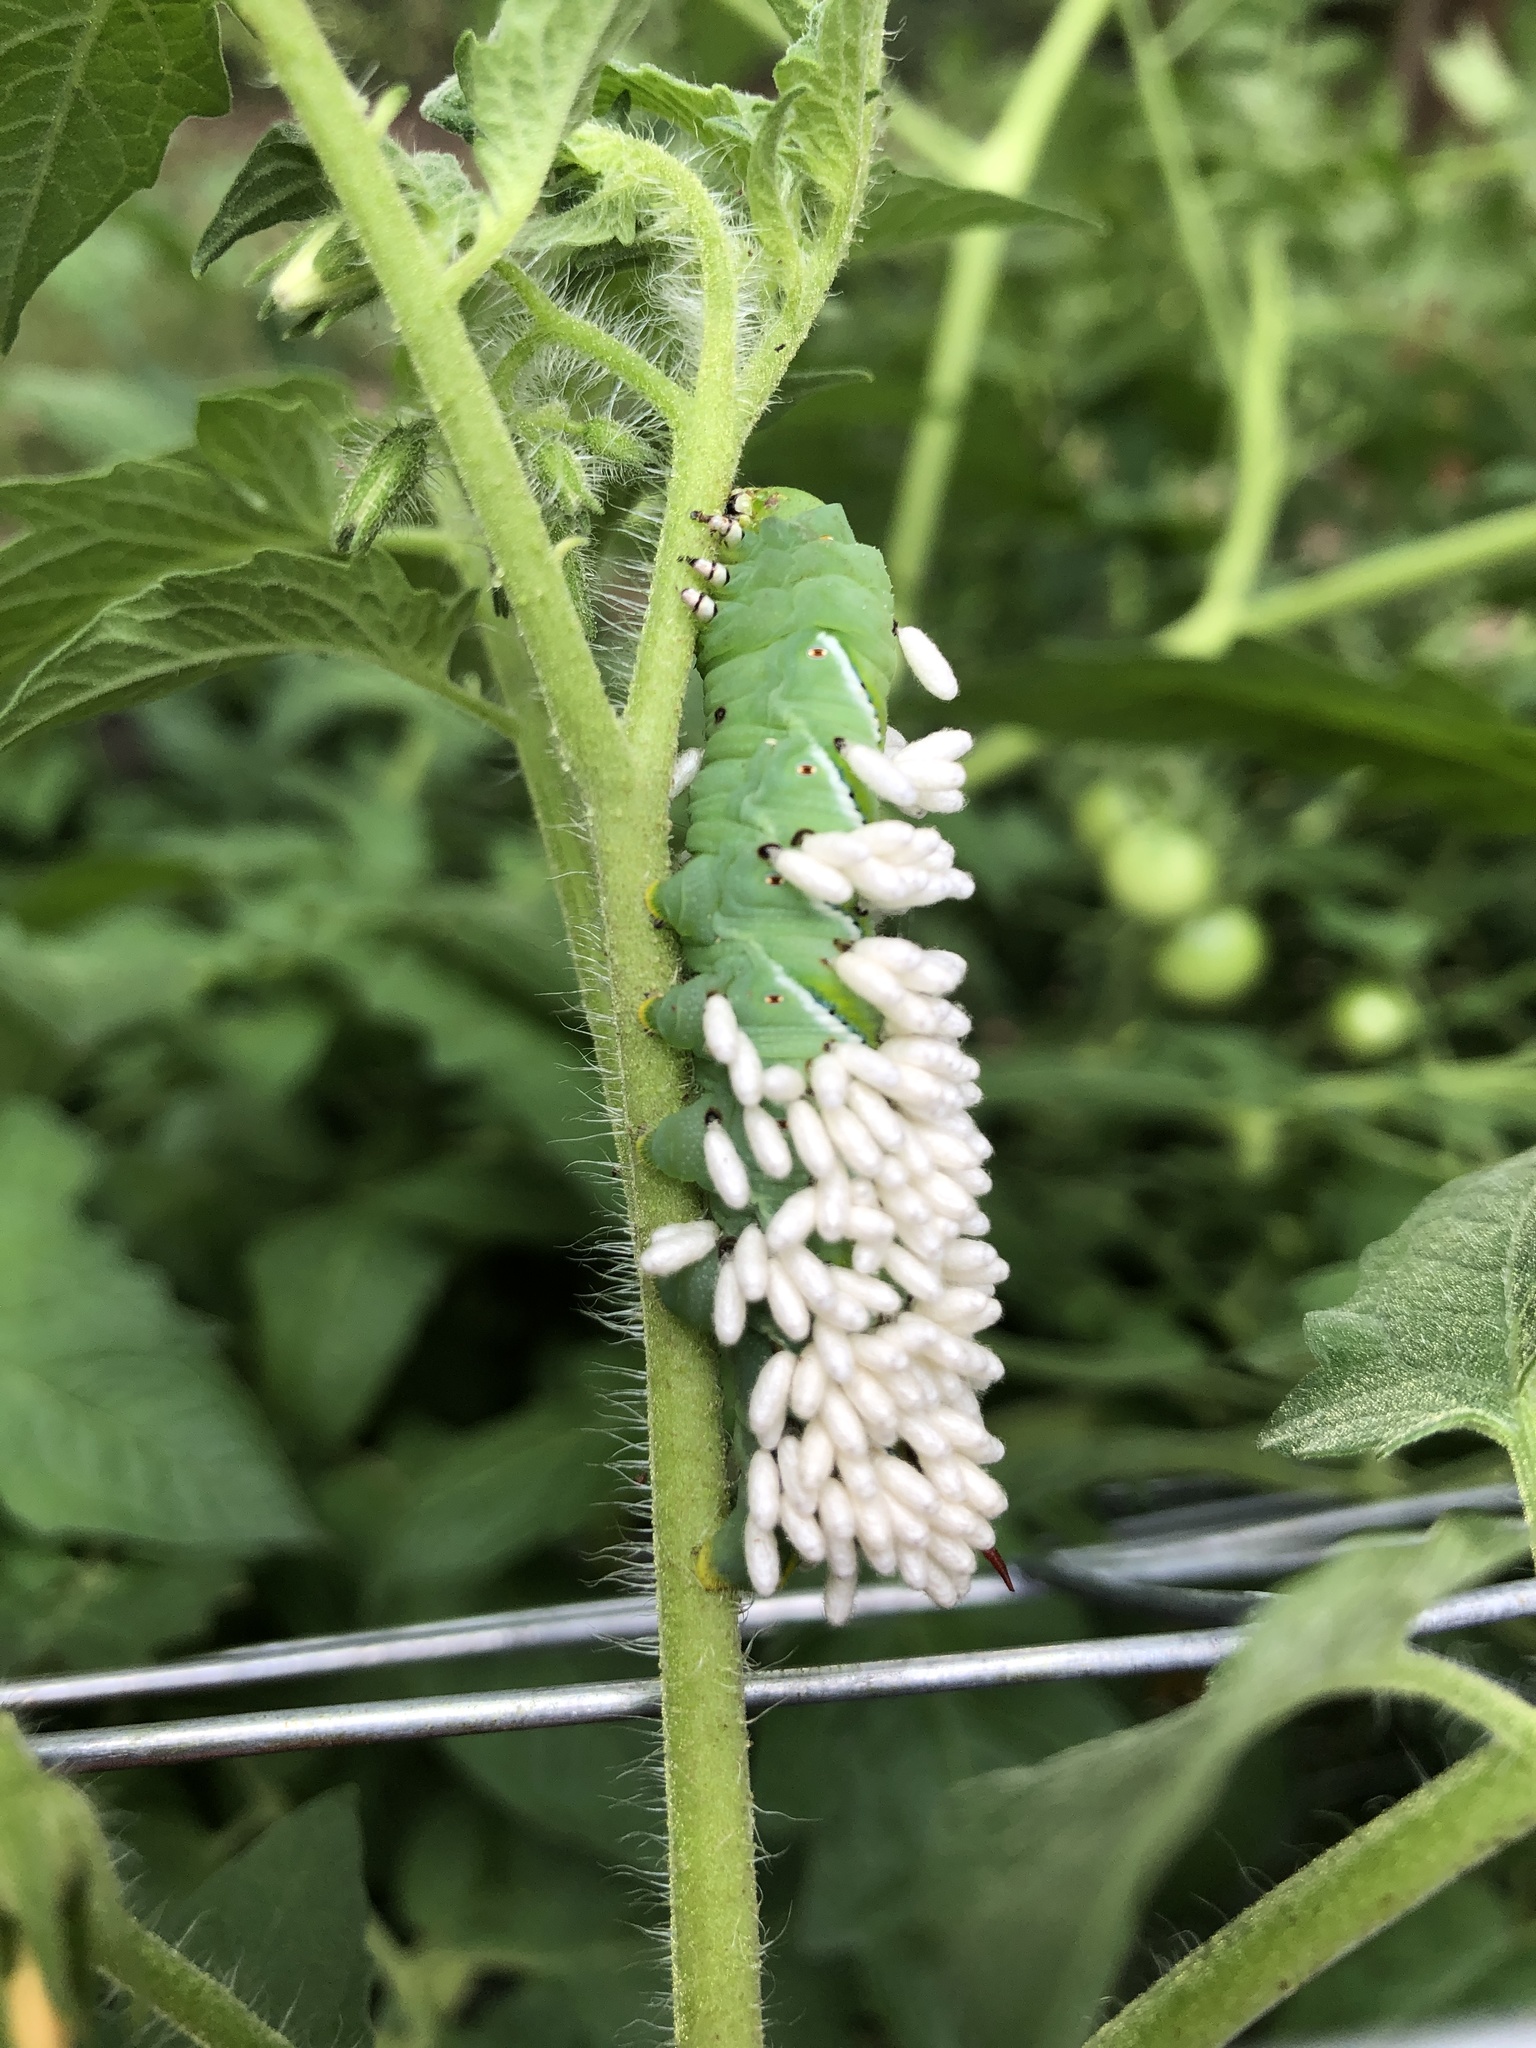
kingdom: Animalia
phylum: Arthropoda
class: Insecta
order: Lepidoptera
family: Sphingidae
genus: Manduca
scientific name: Manduca sexta
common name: Carolina sphinx
